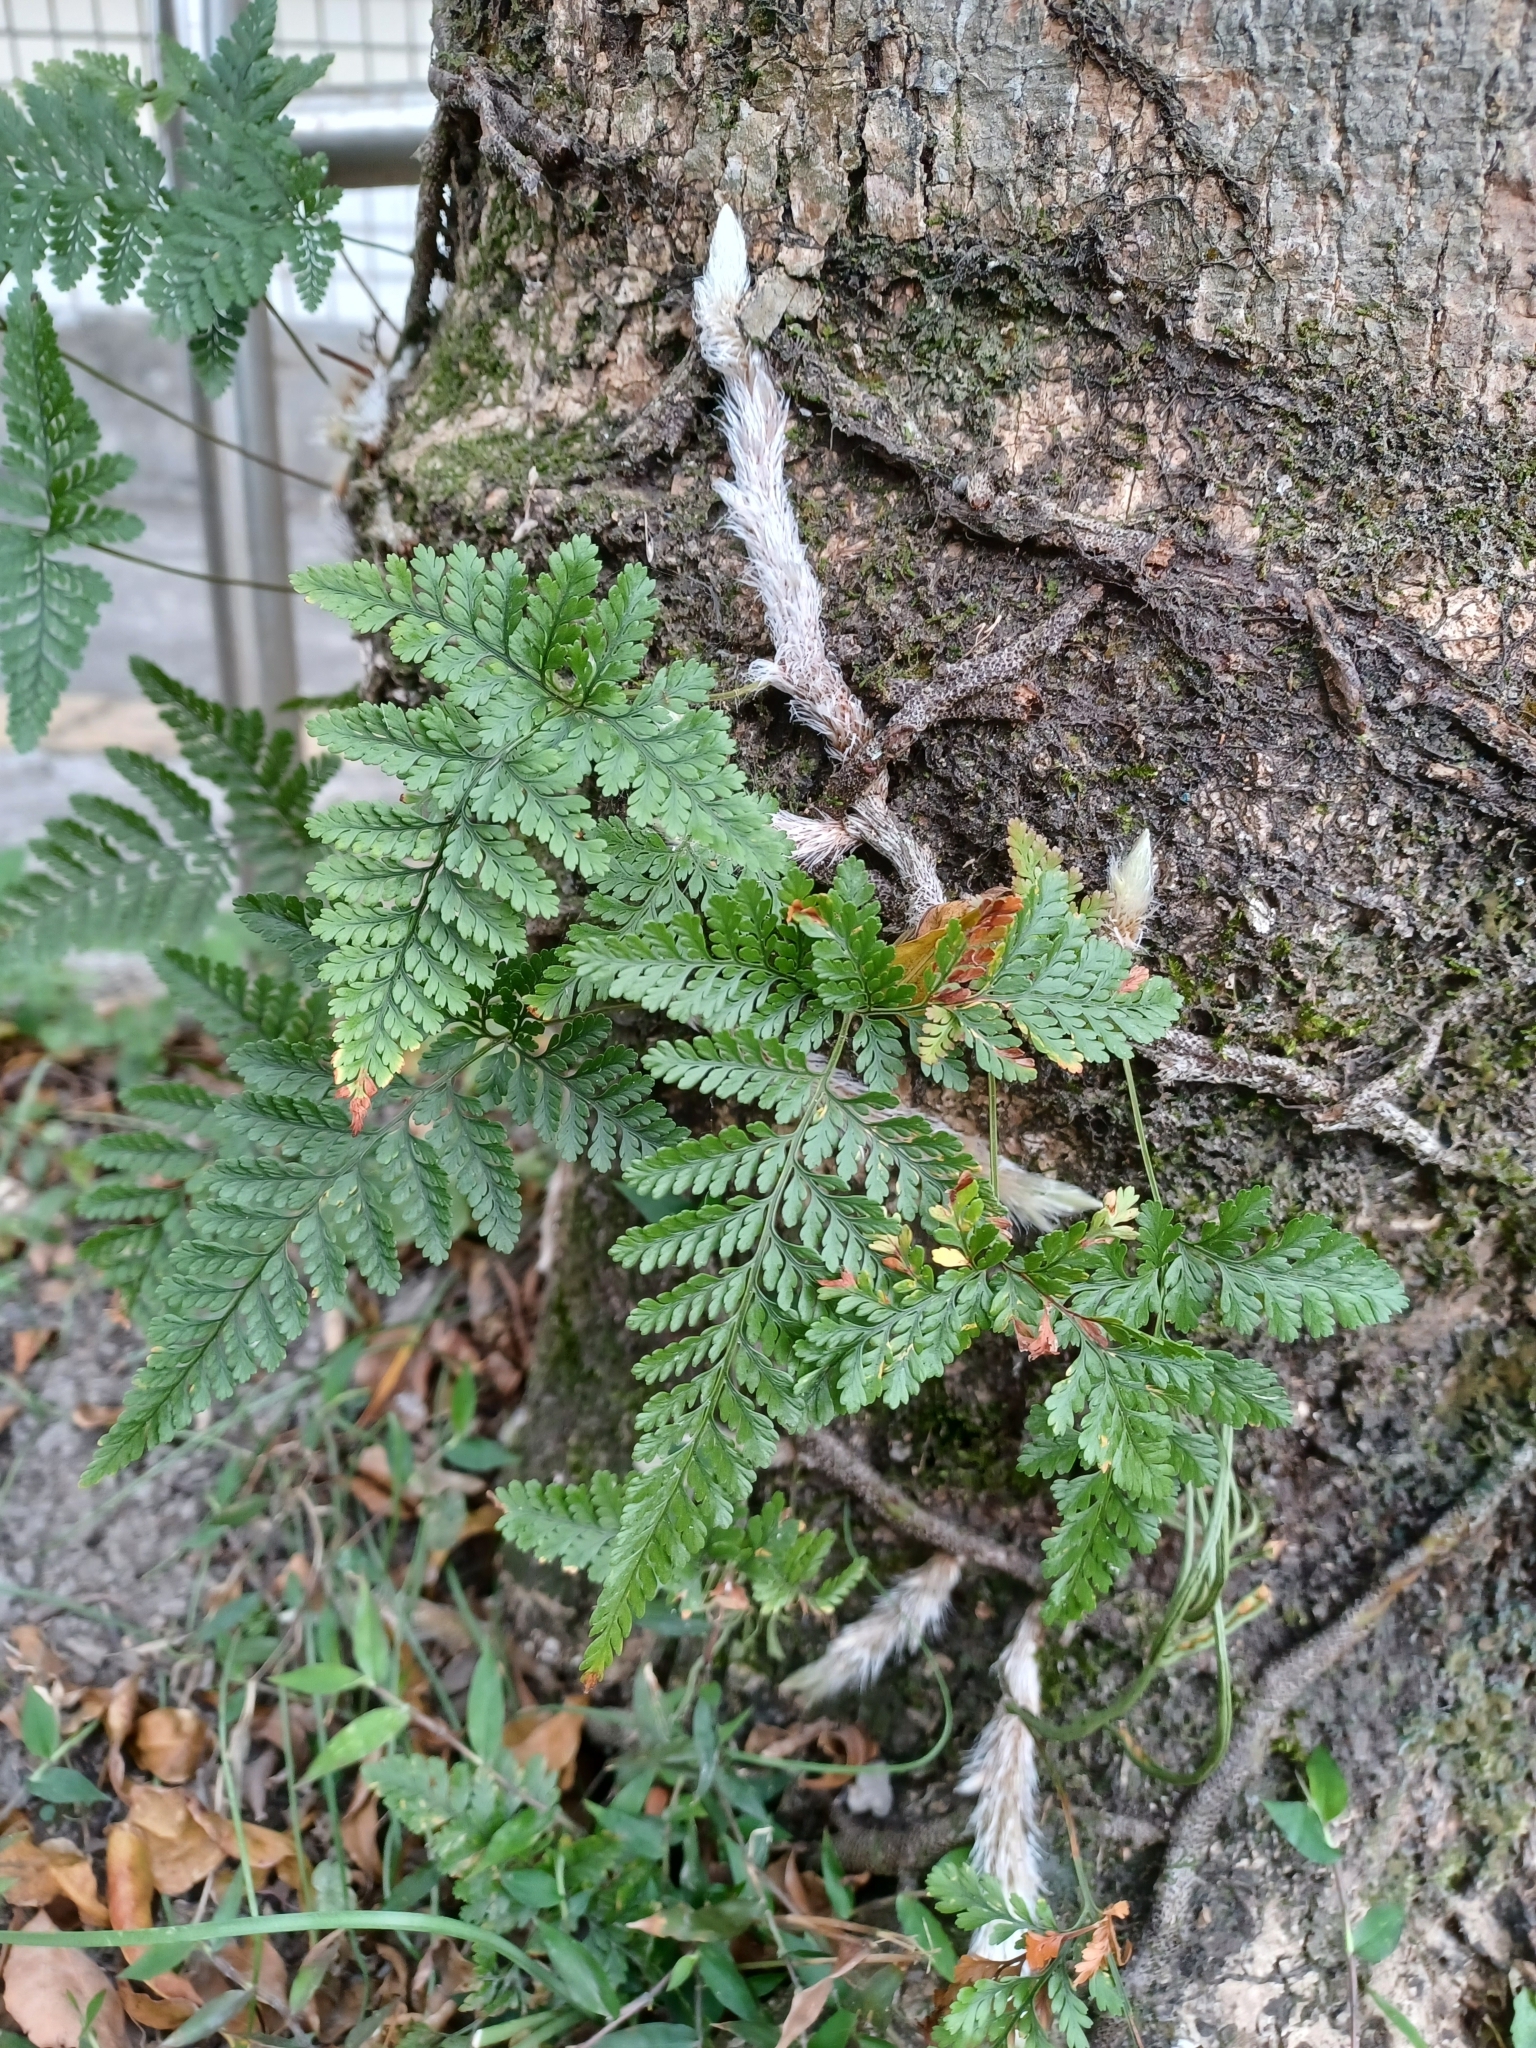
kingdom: Plantae
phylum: Tracheophyta
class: Polypodiopsida
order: Polypodiales
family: Davalliaceae
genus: Davallia
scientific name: Davallia trichomanoides
